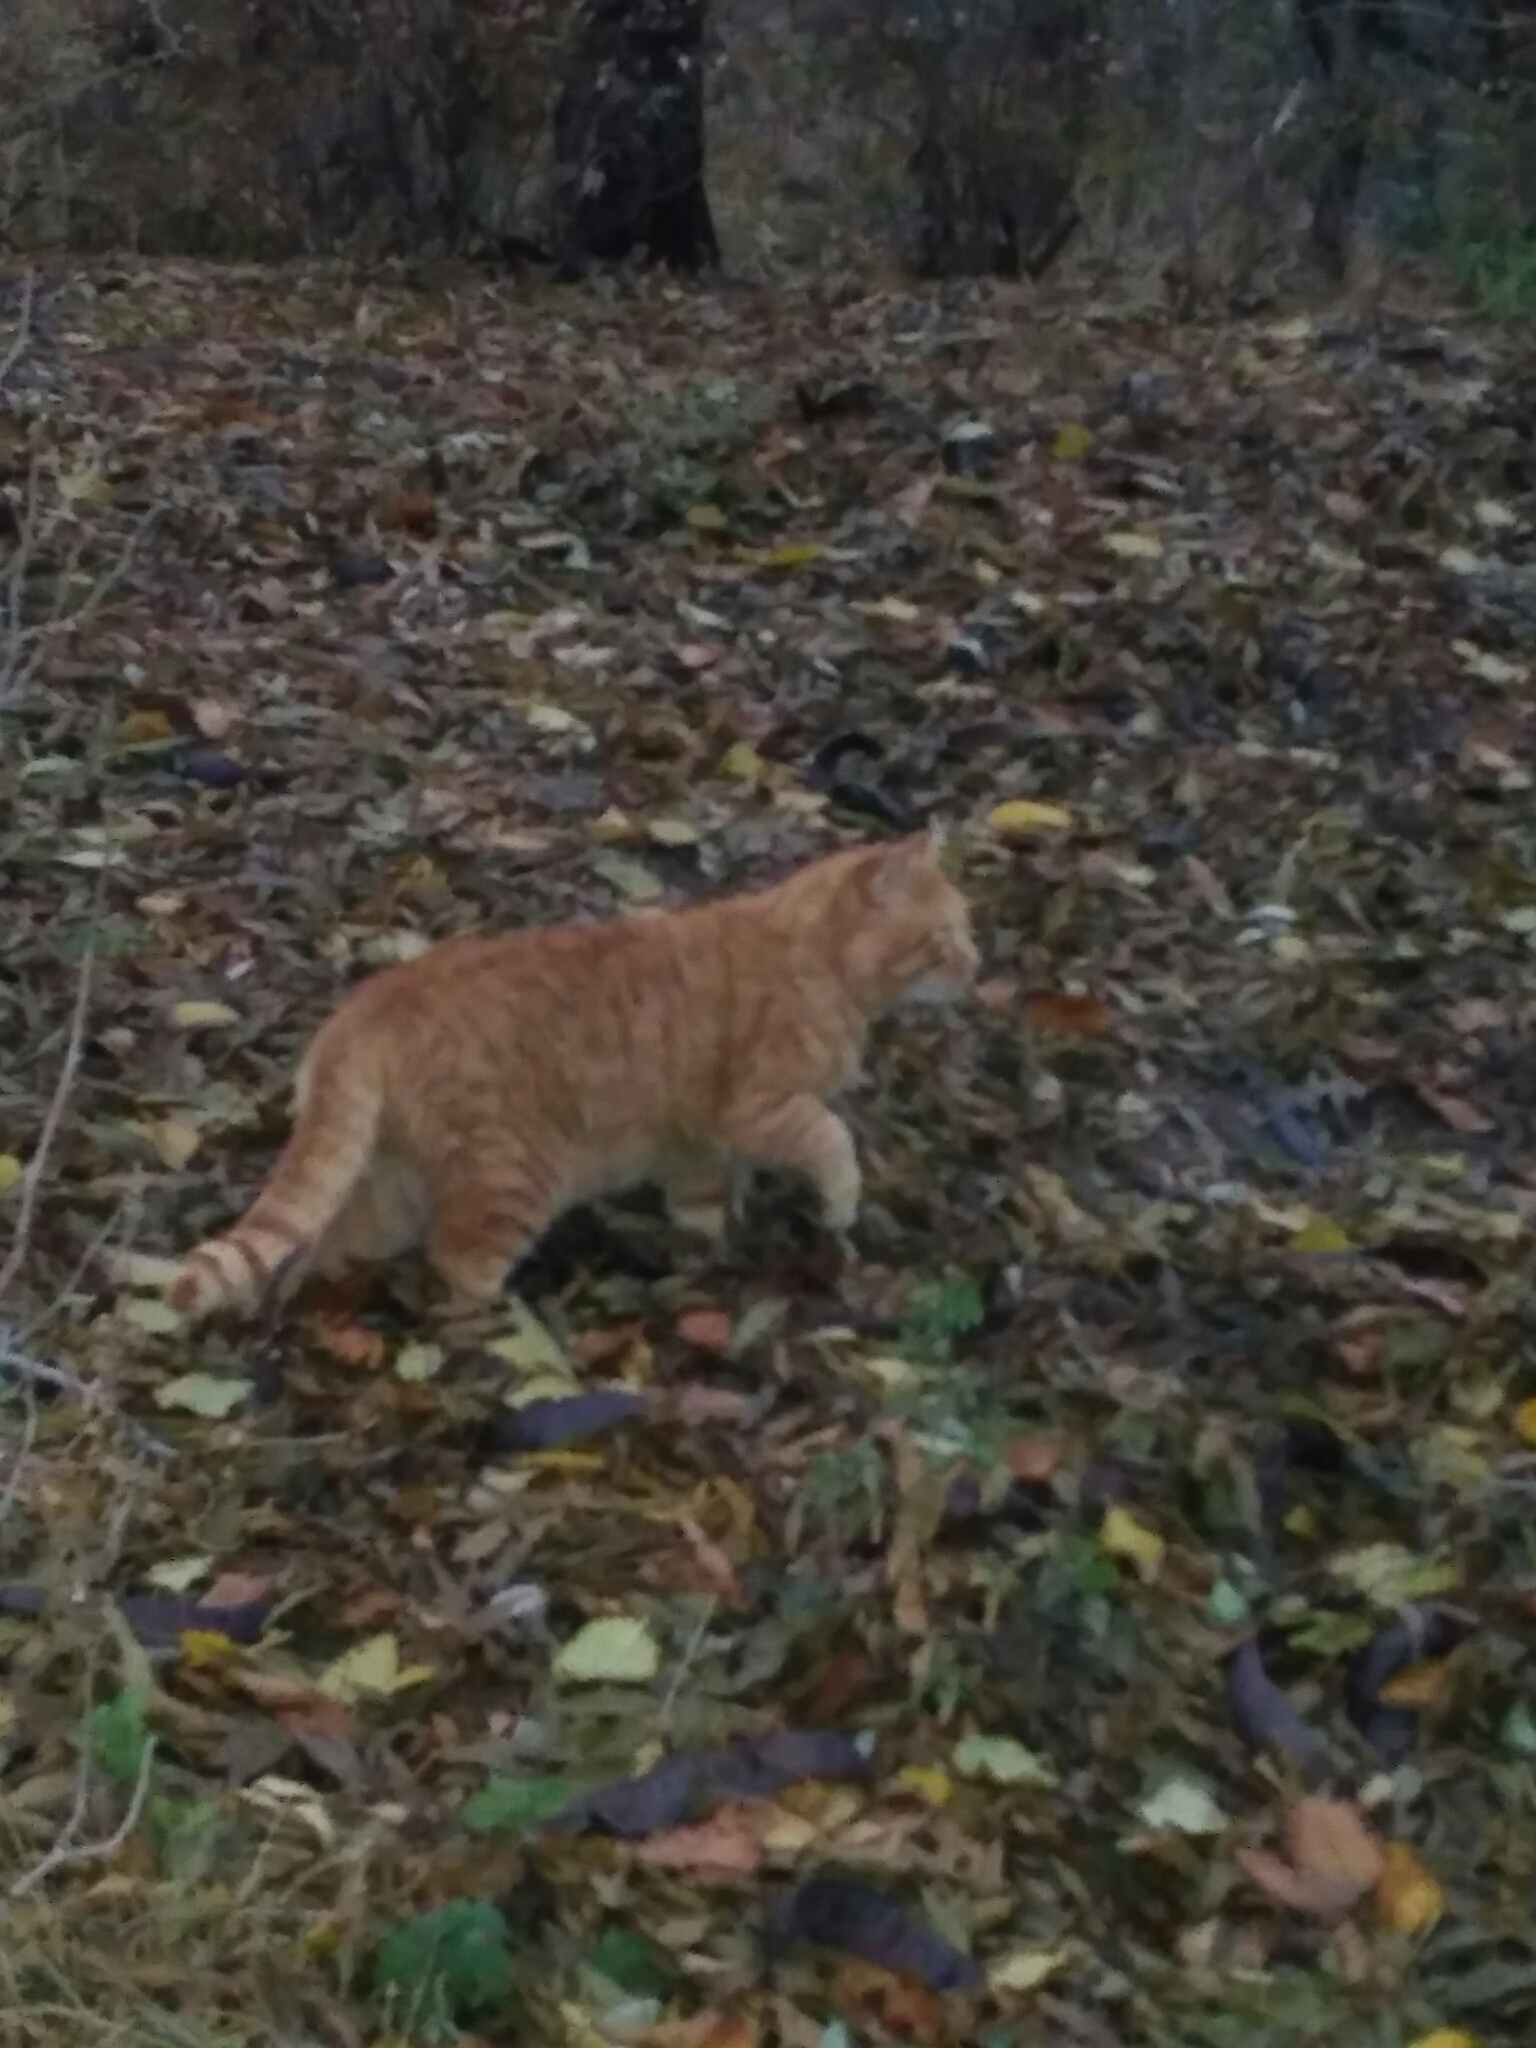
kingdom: Animalia
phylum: Chordata
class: Mammalia
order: Carnivora
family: Felidae
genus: Felis
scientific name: Felis catus
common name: Domestic cat
